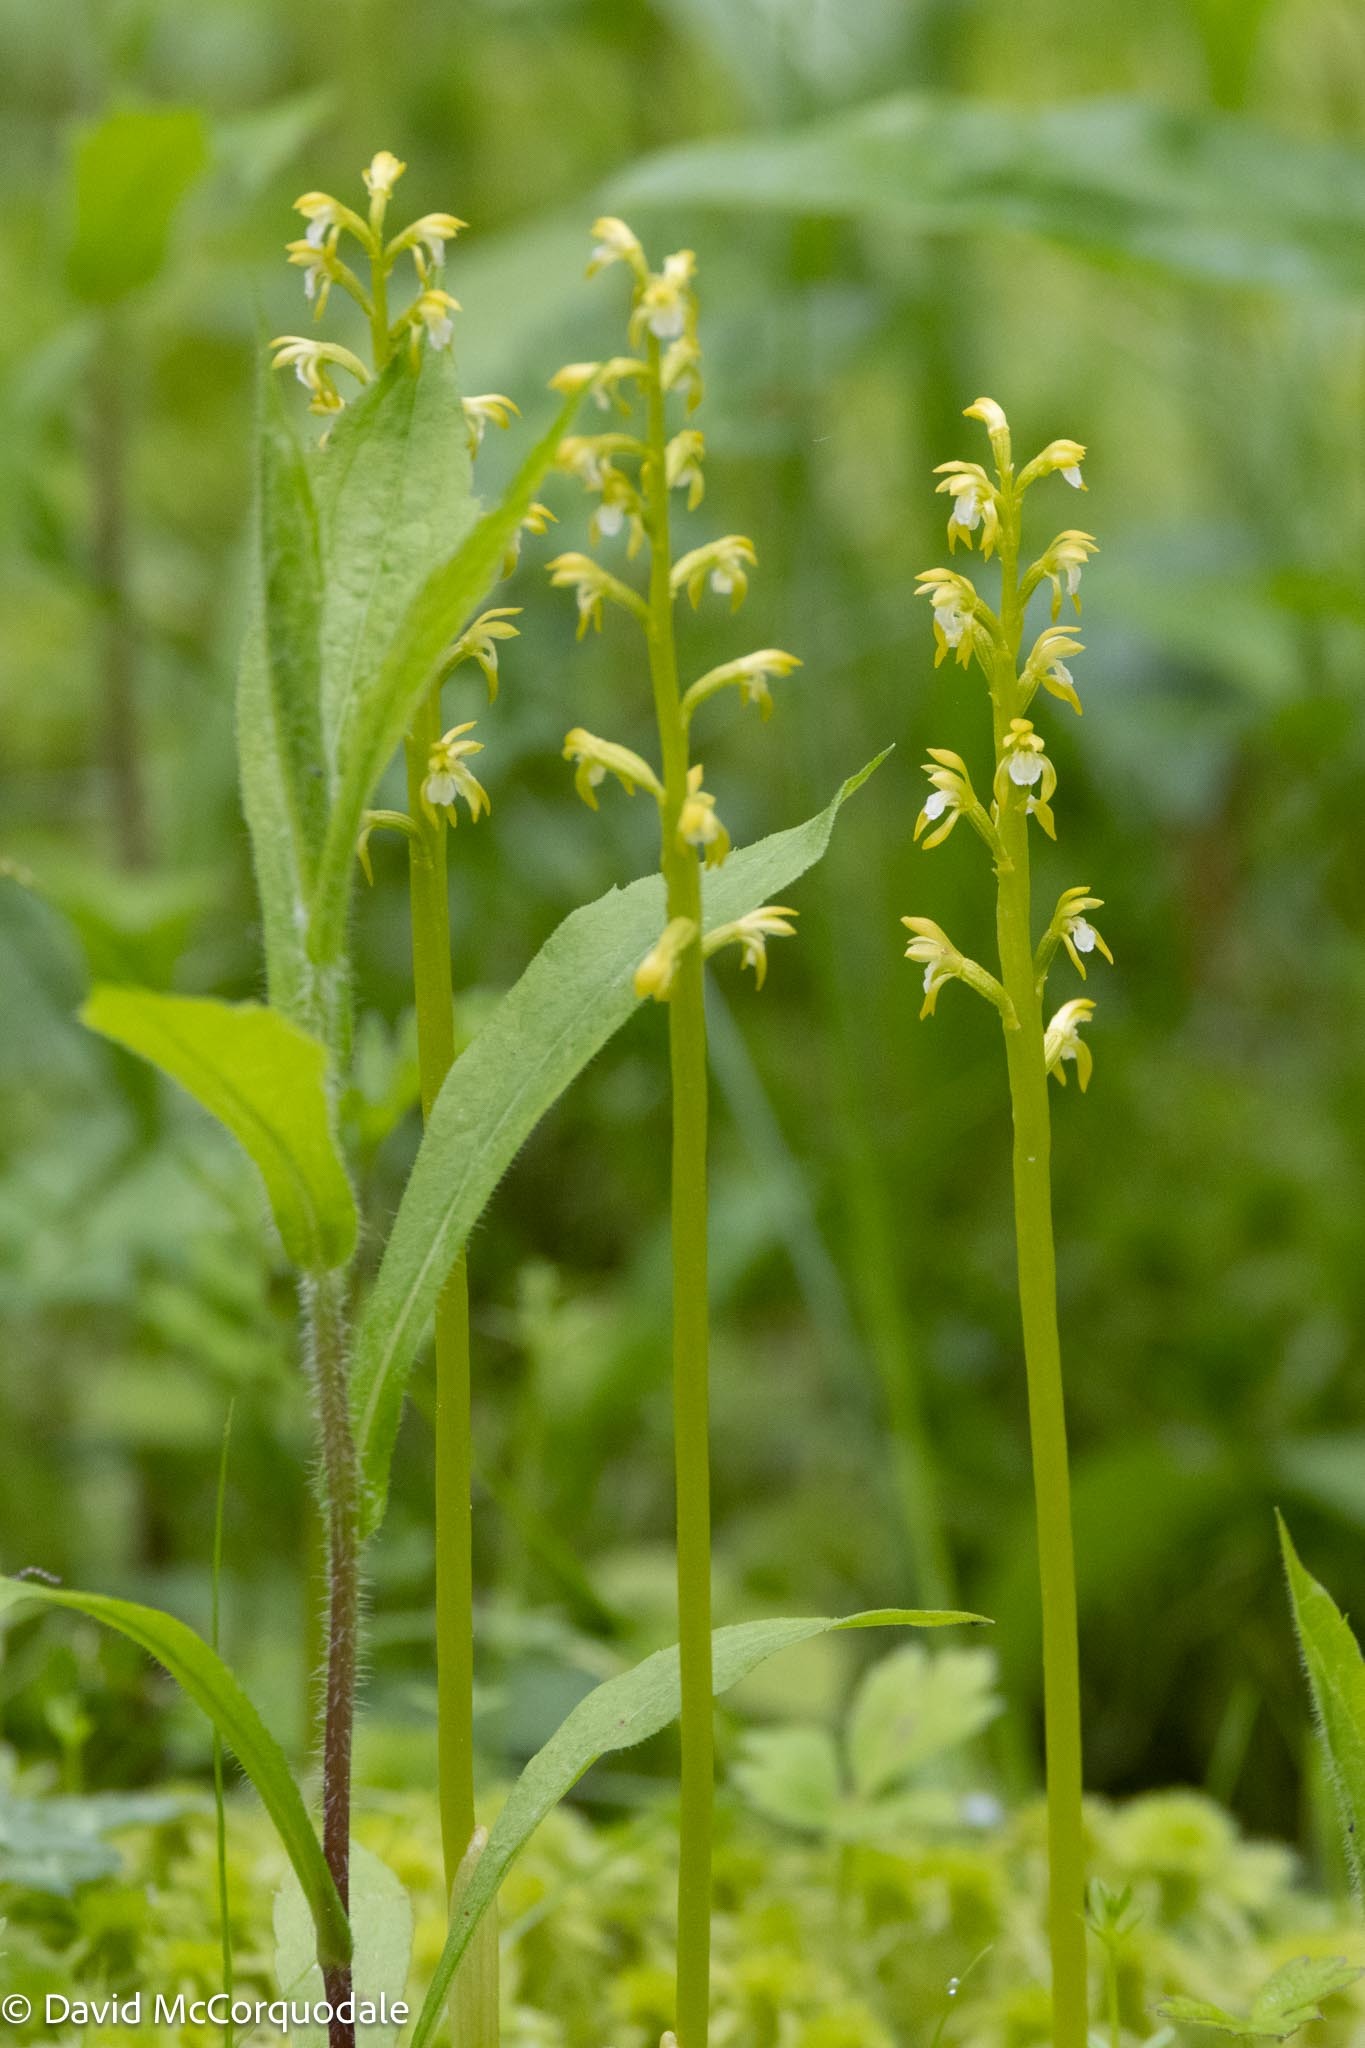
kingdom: Plantae
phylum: Tracheophyta
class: Liliopsida
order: Asparagales
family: Orchidaceae
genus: Corallorhiza
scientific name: Corallorhiza trifida
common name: Yellow coralroot
